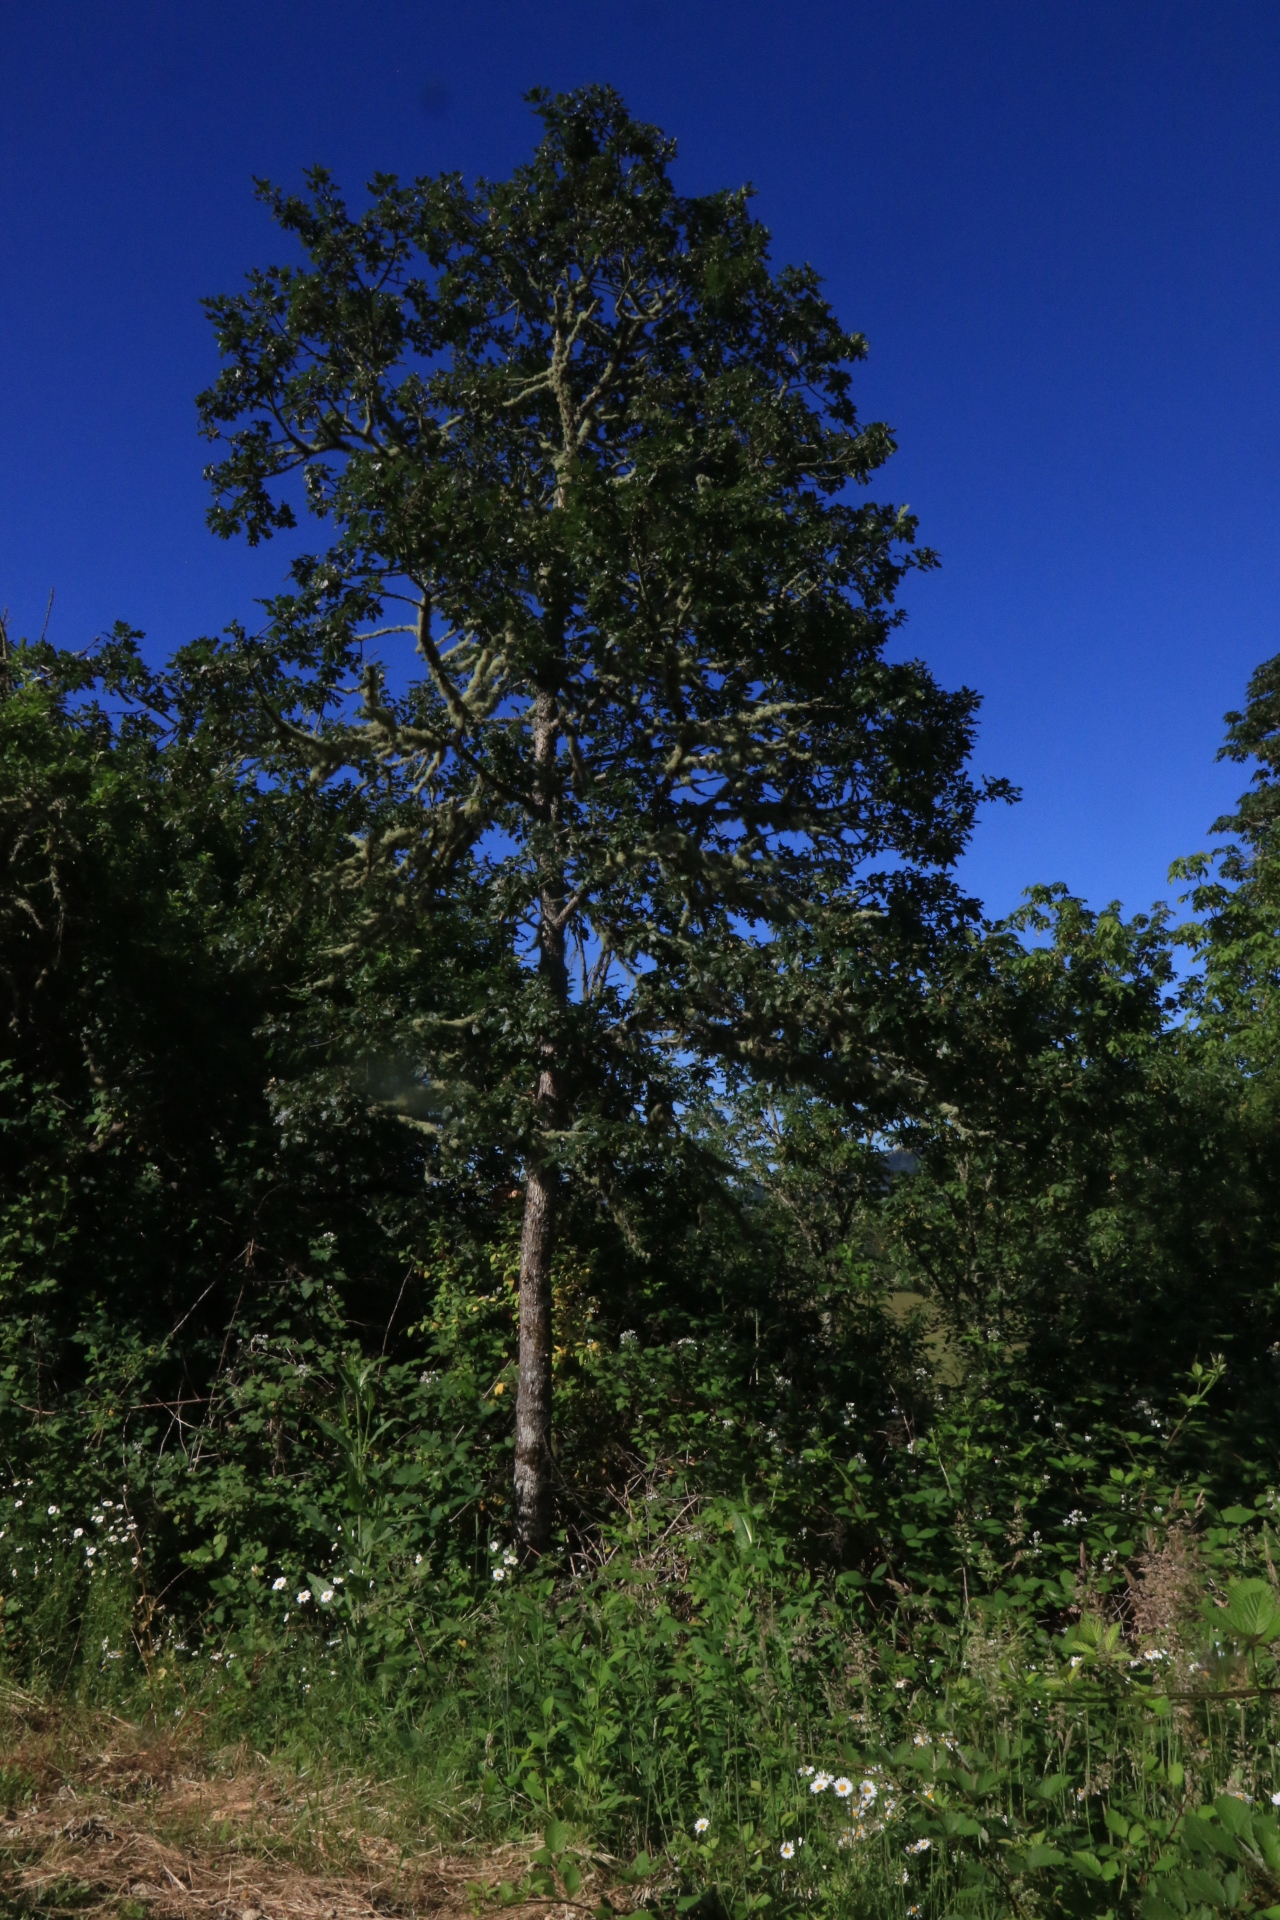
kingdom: Plantae
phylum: Tracheophyta
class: Magnoliopsida
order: Fagales
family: Fagaceae
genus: Quercus
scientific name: Quercus garryana
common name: Garry oak
